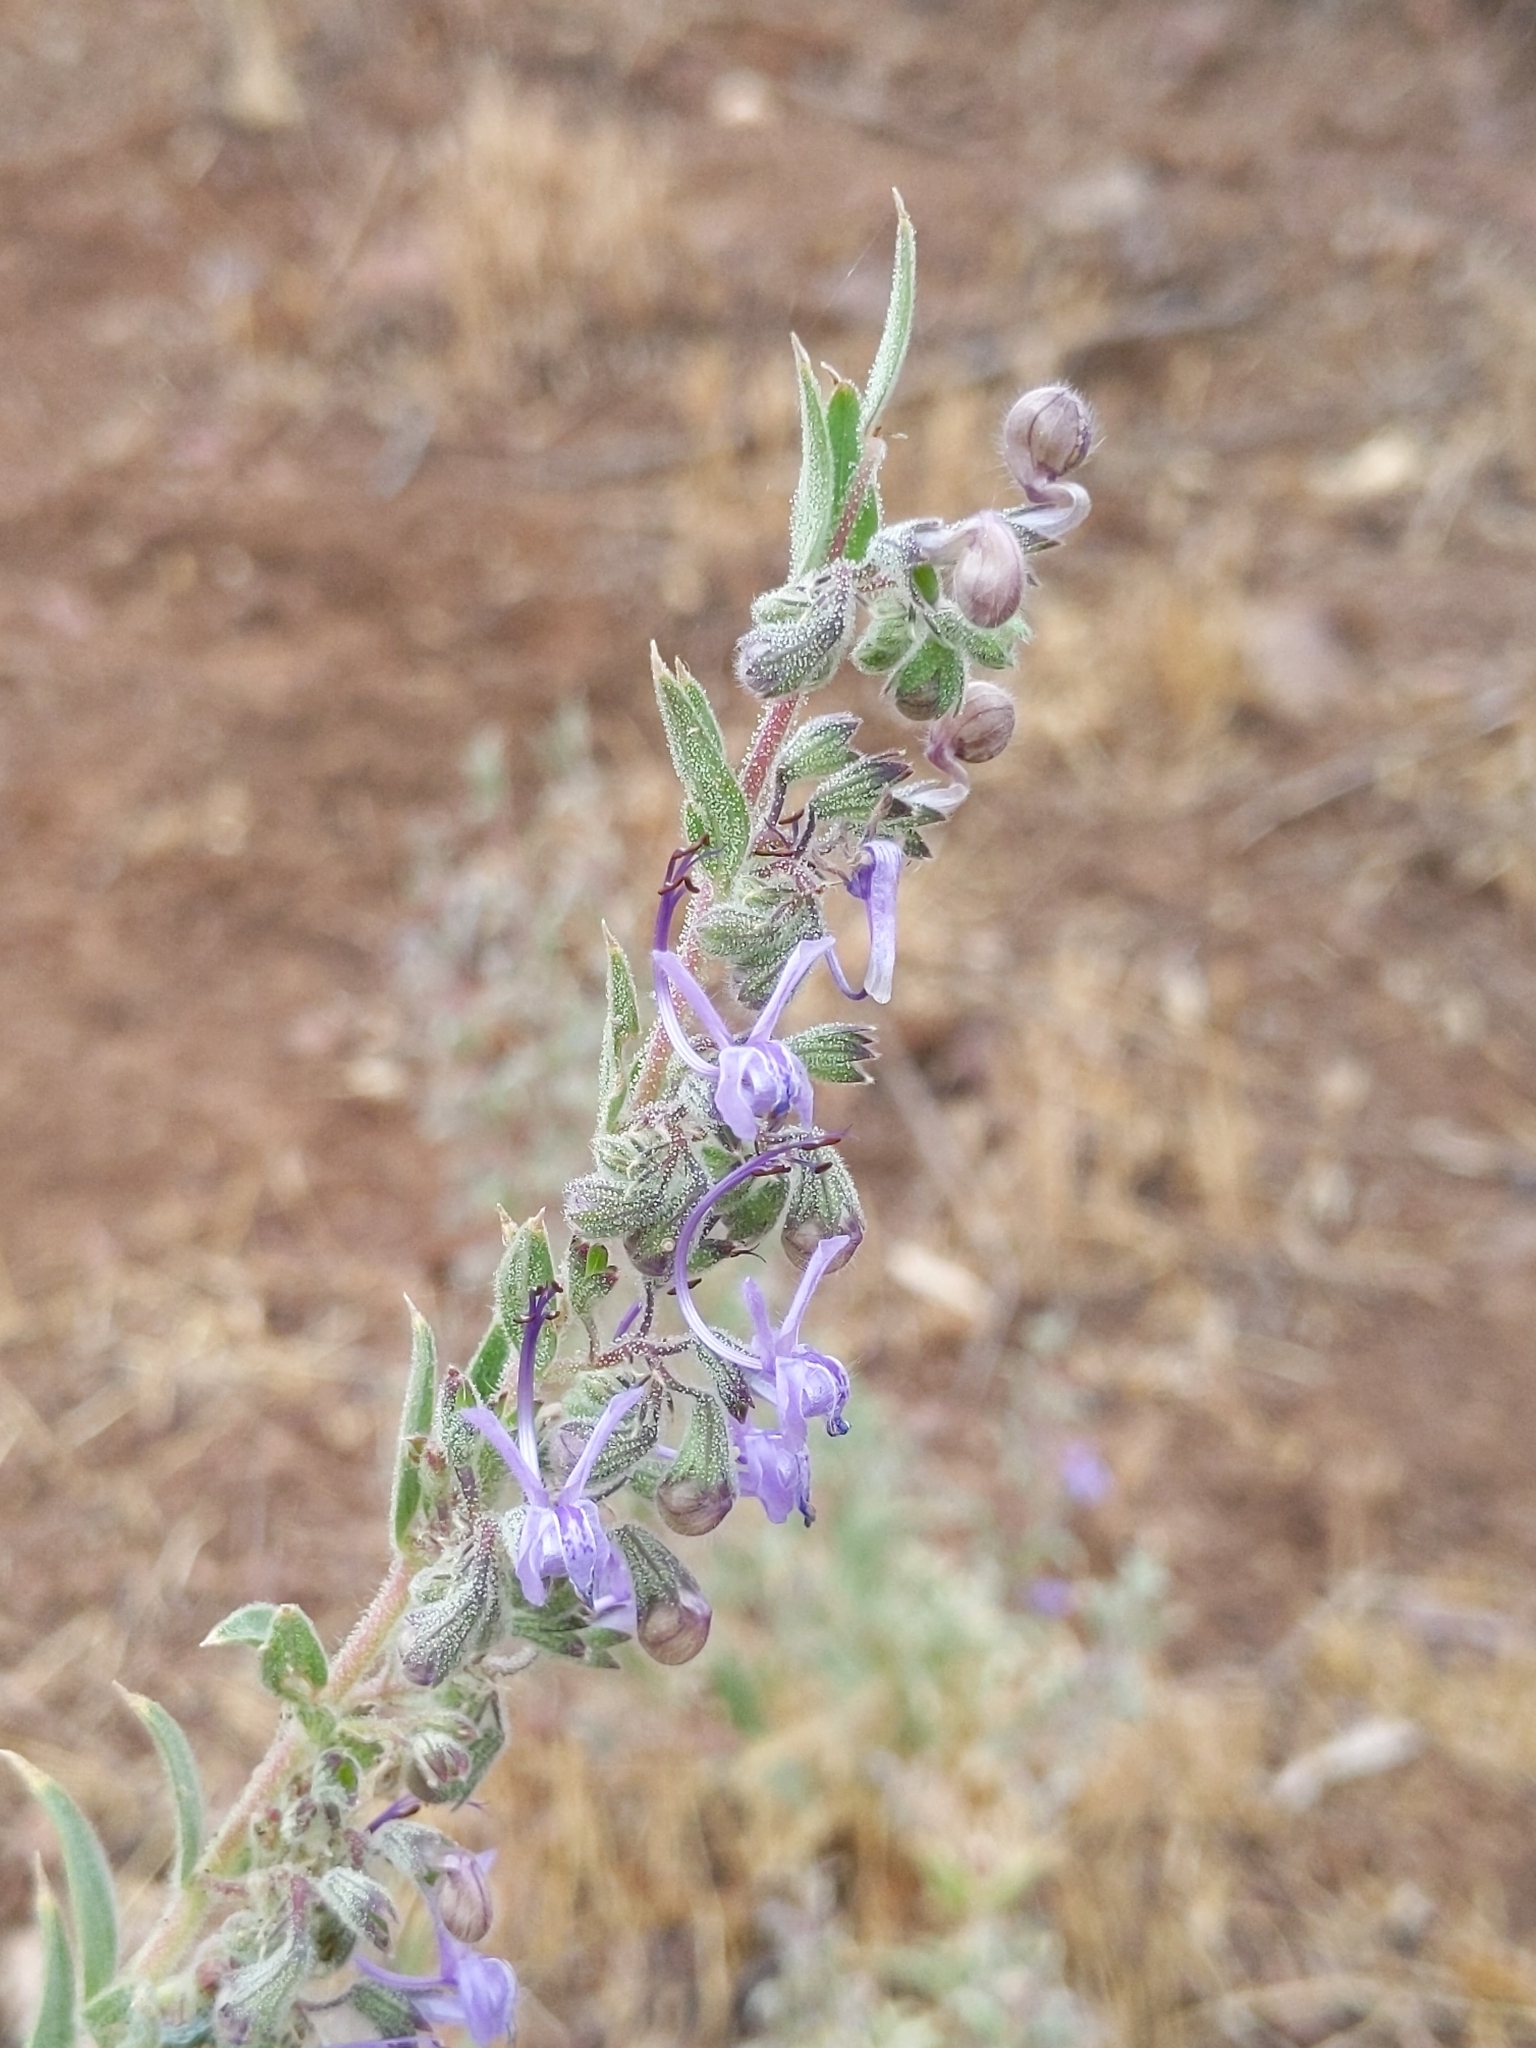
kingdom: Plantae
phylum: Tracheophyta
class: Magnoliopsida
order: Lamiales
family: Lamiaceae
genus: Trichostema
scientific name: Trichostema lanceolatum
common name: Vinegar-weed
